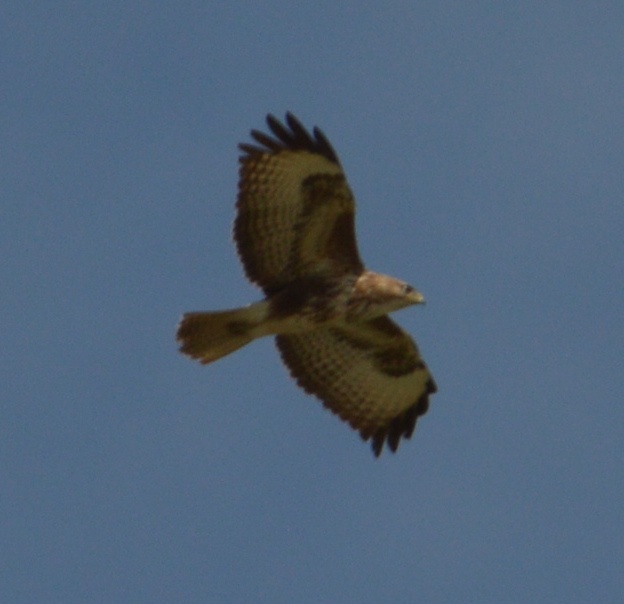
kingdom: Animalia
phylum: Chordata
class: Aves
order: Accipitriformes
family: Accipitridae
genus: Buteo
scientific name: Buteo buteo
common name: Common buzzard
